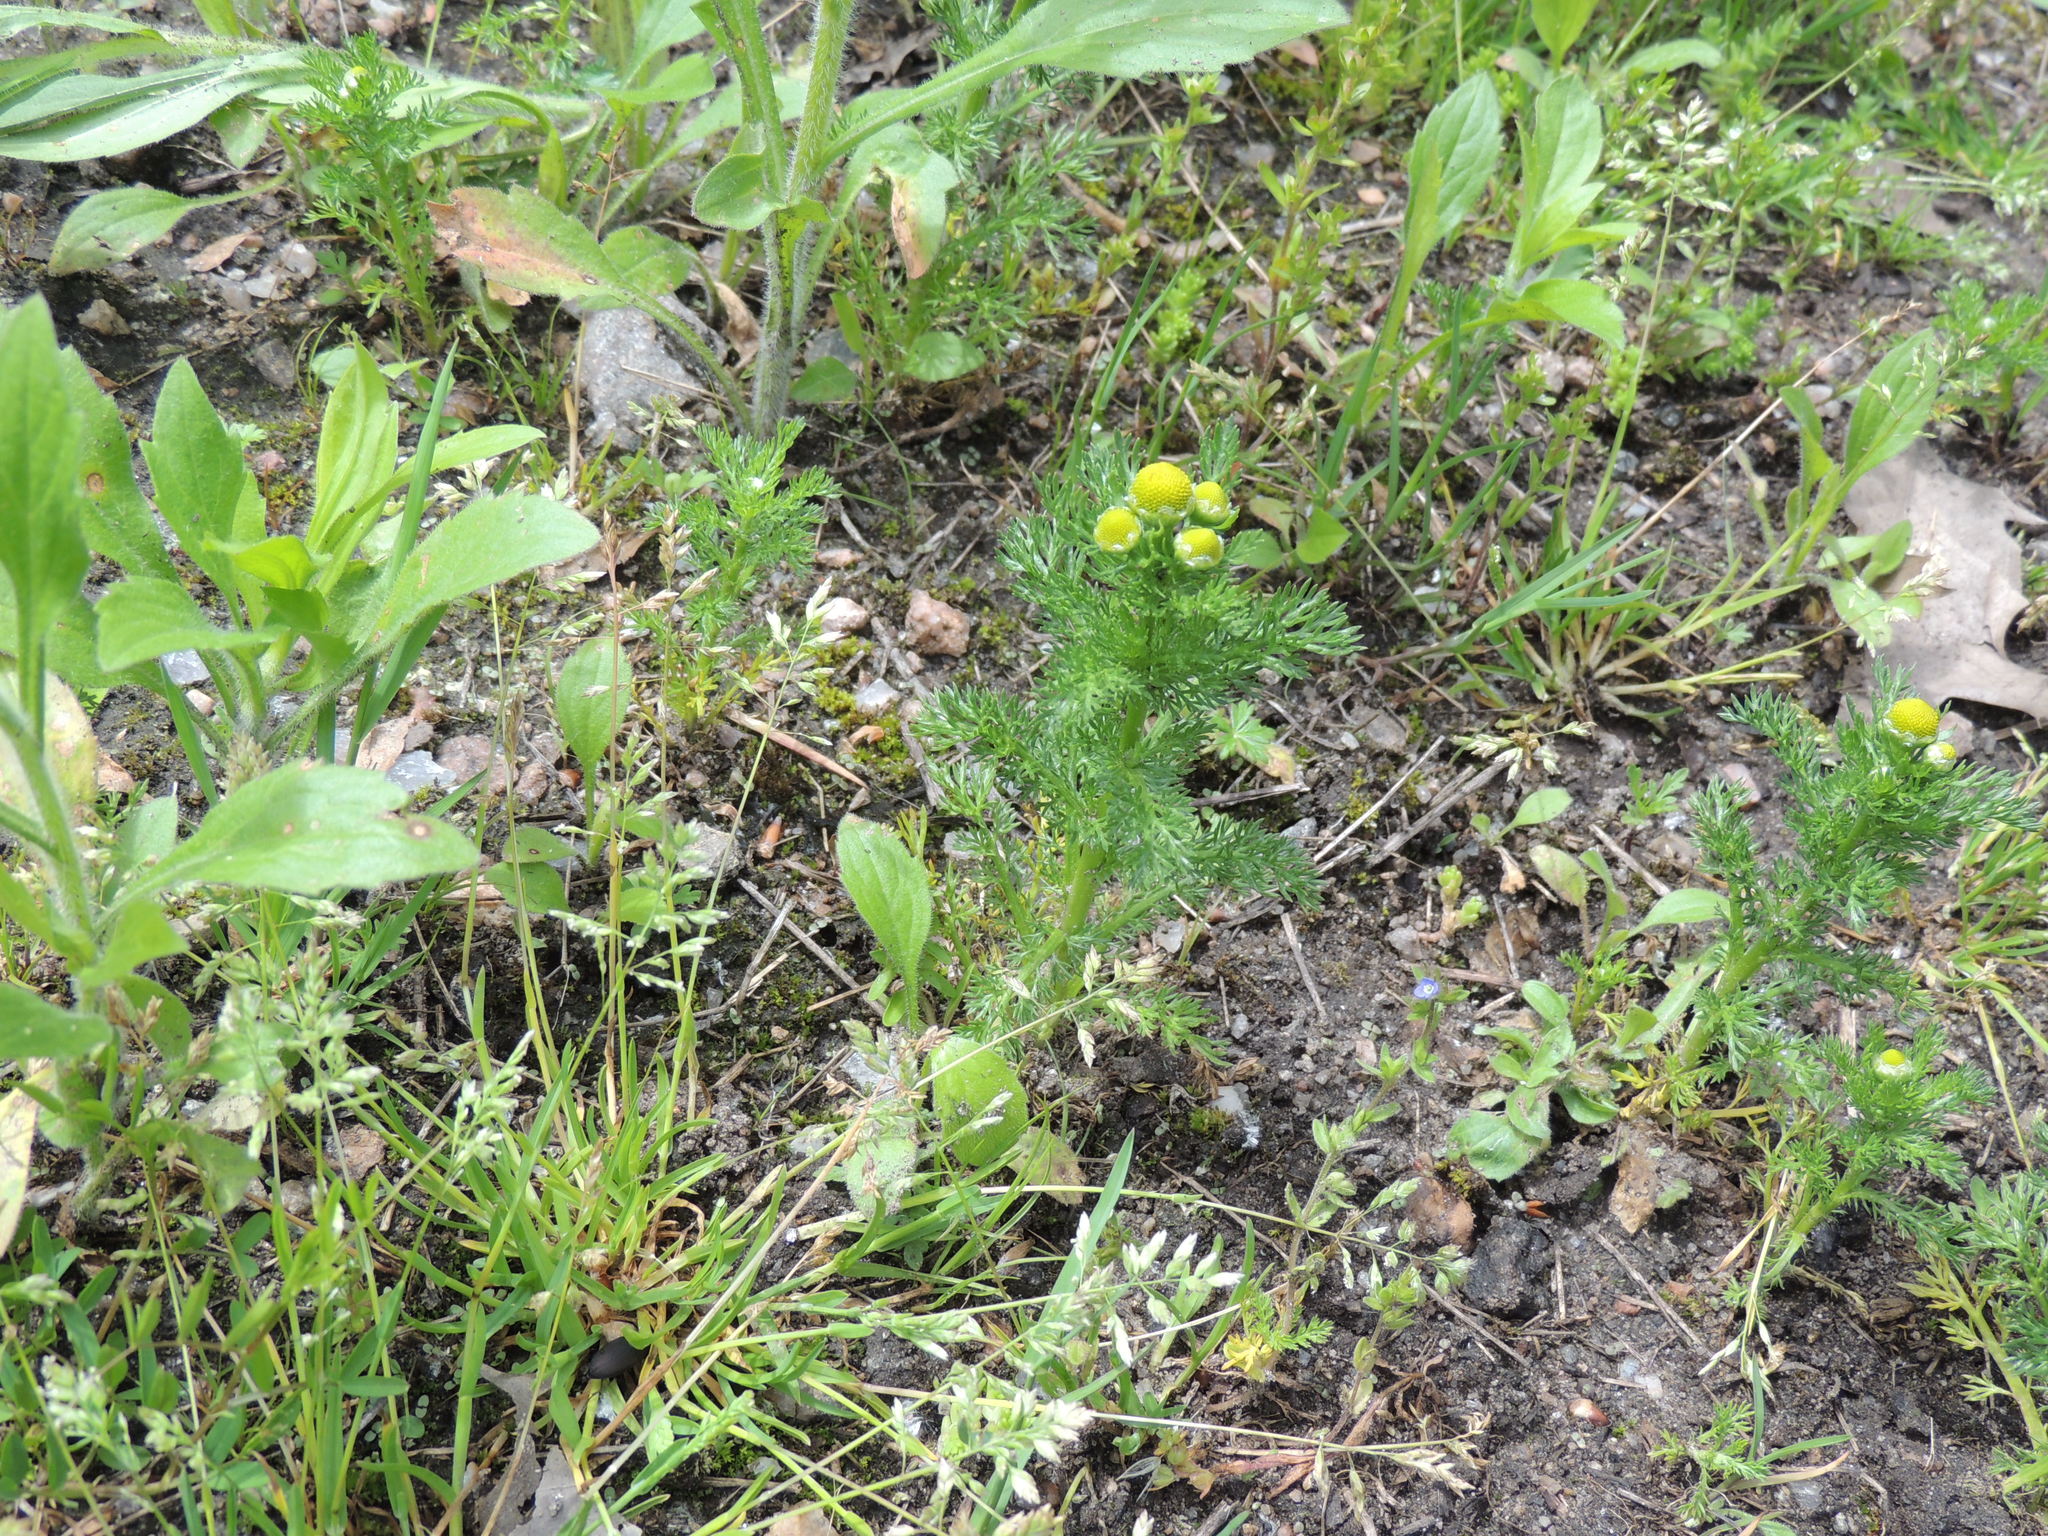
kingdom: Plantae
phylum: Tracheophyta
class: Magnoliopsida
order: Asterales
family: Asteraceae
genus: Matricaria
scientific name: Matricaria discoidea
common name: Disc mayweed
